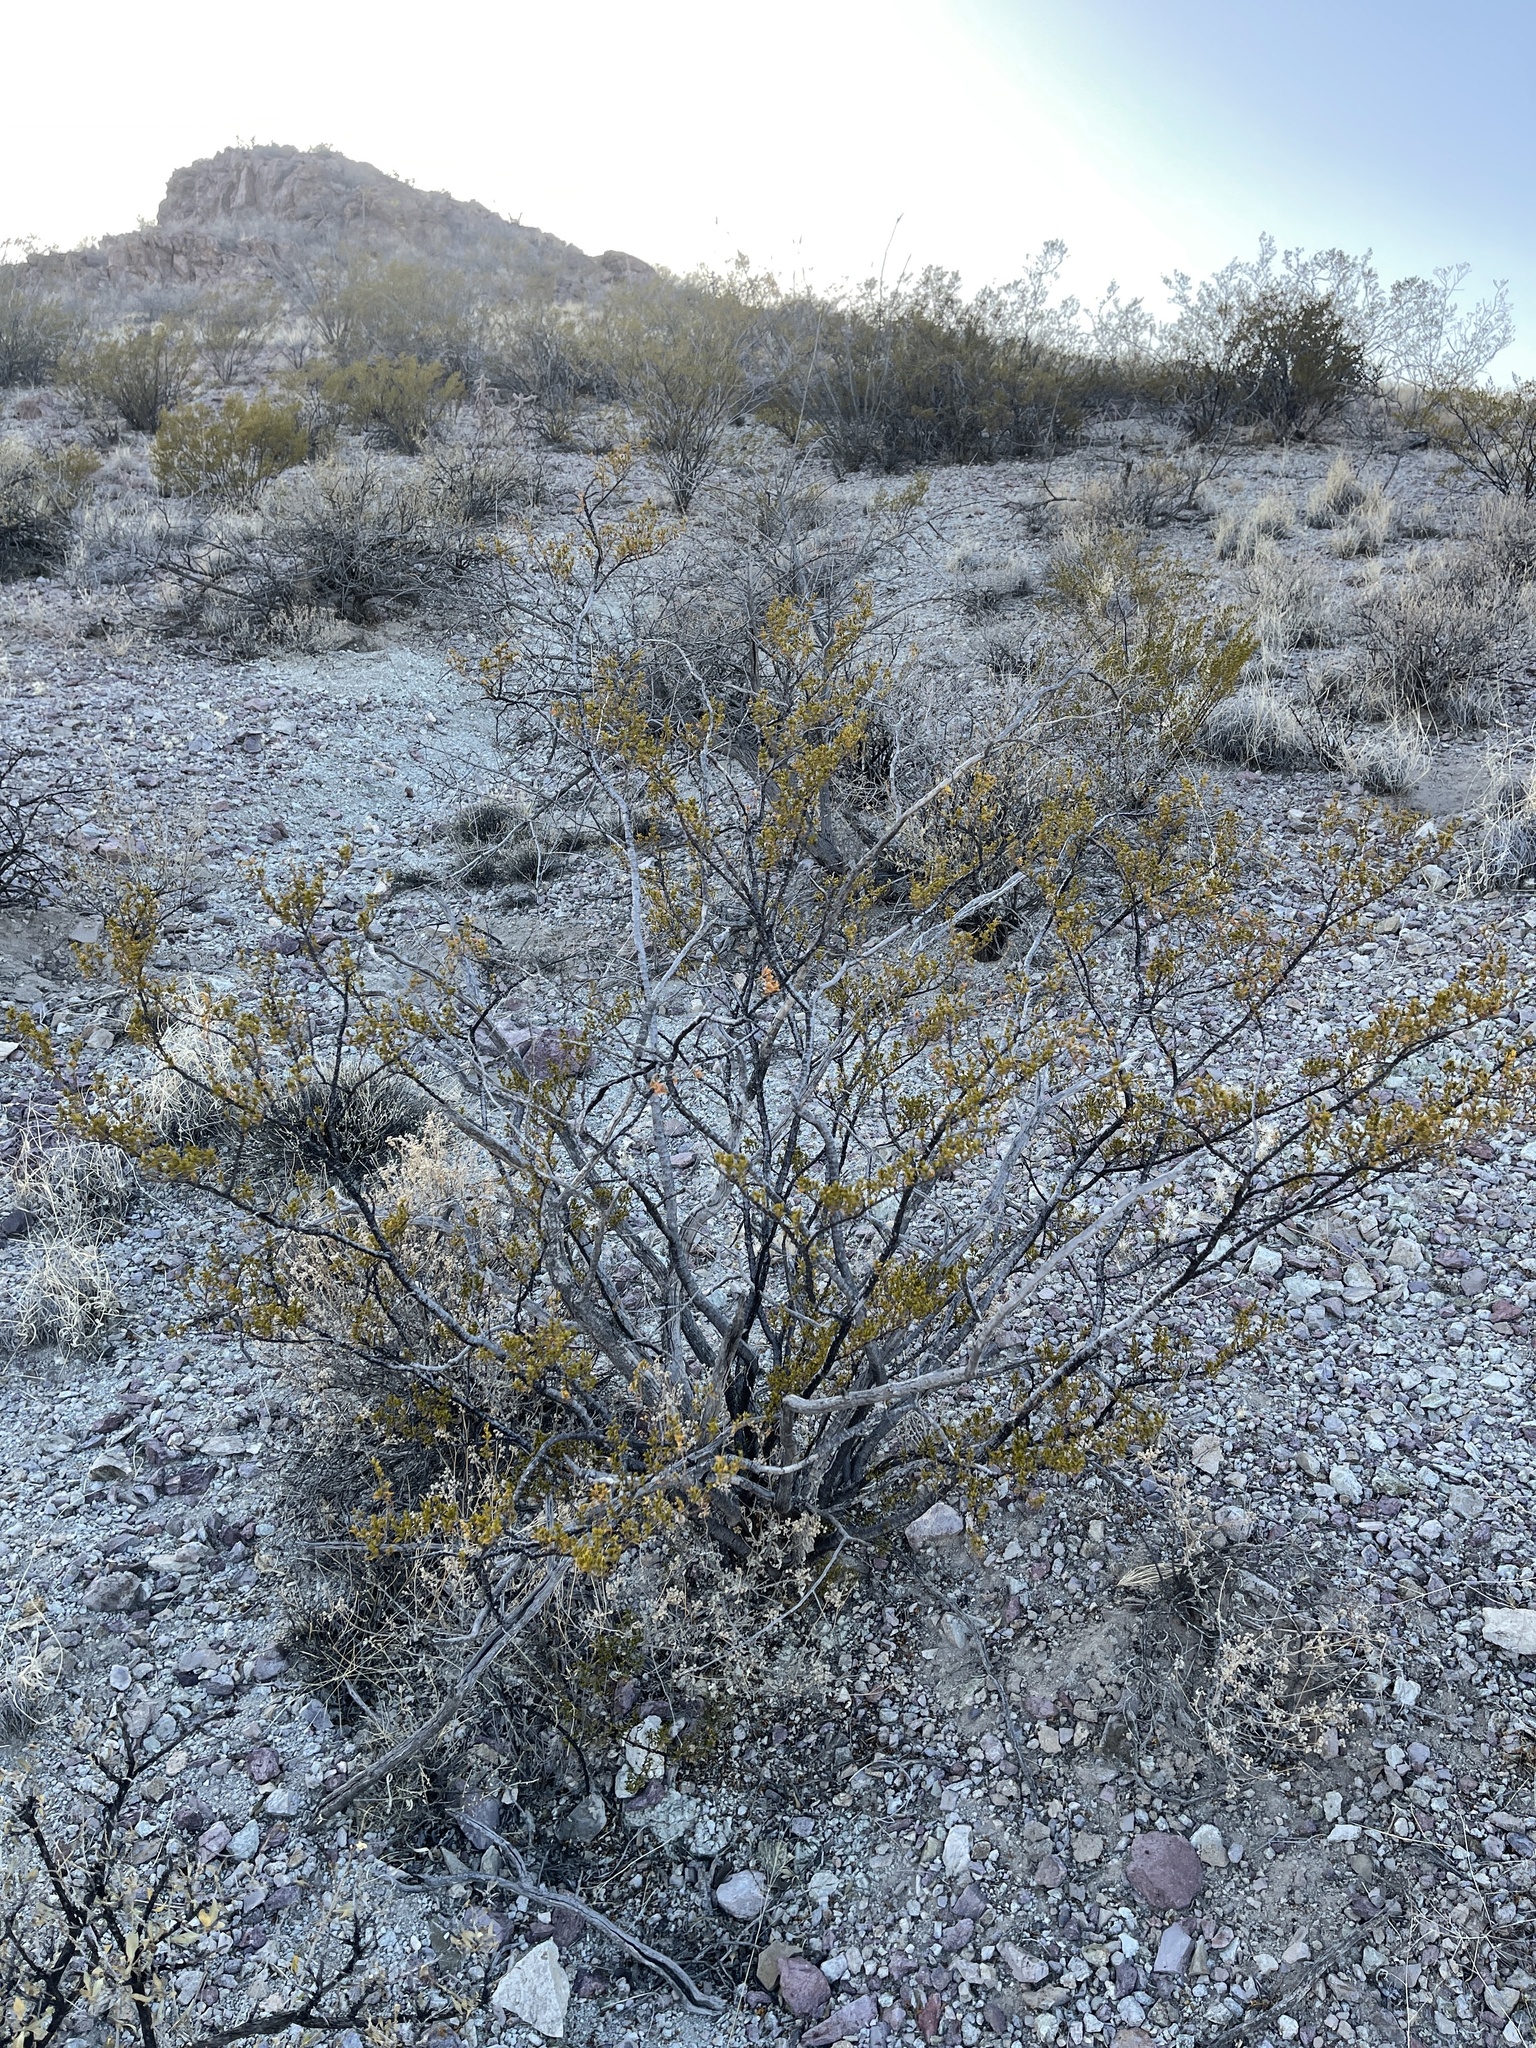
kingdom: Plantae
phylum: Tracheophyta
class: Magnoliopsida
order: Zygophyllales
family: Zygophyllaceae
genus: Larrea
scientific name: Larrea tridentata
